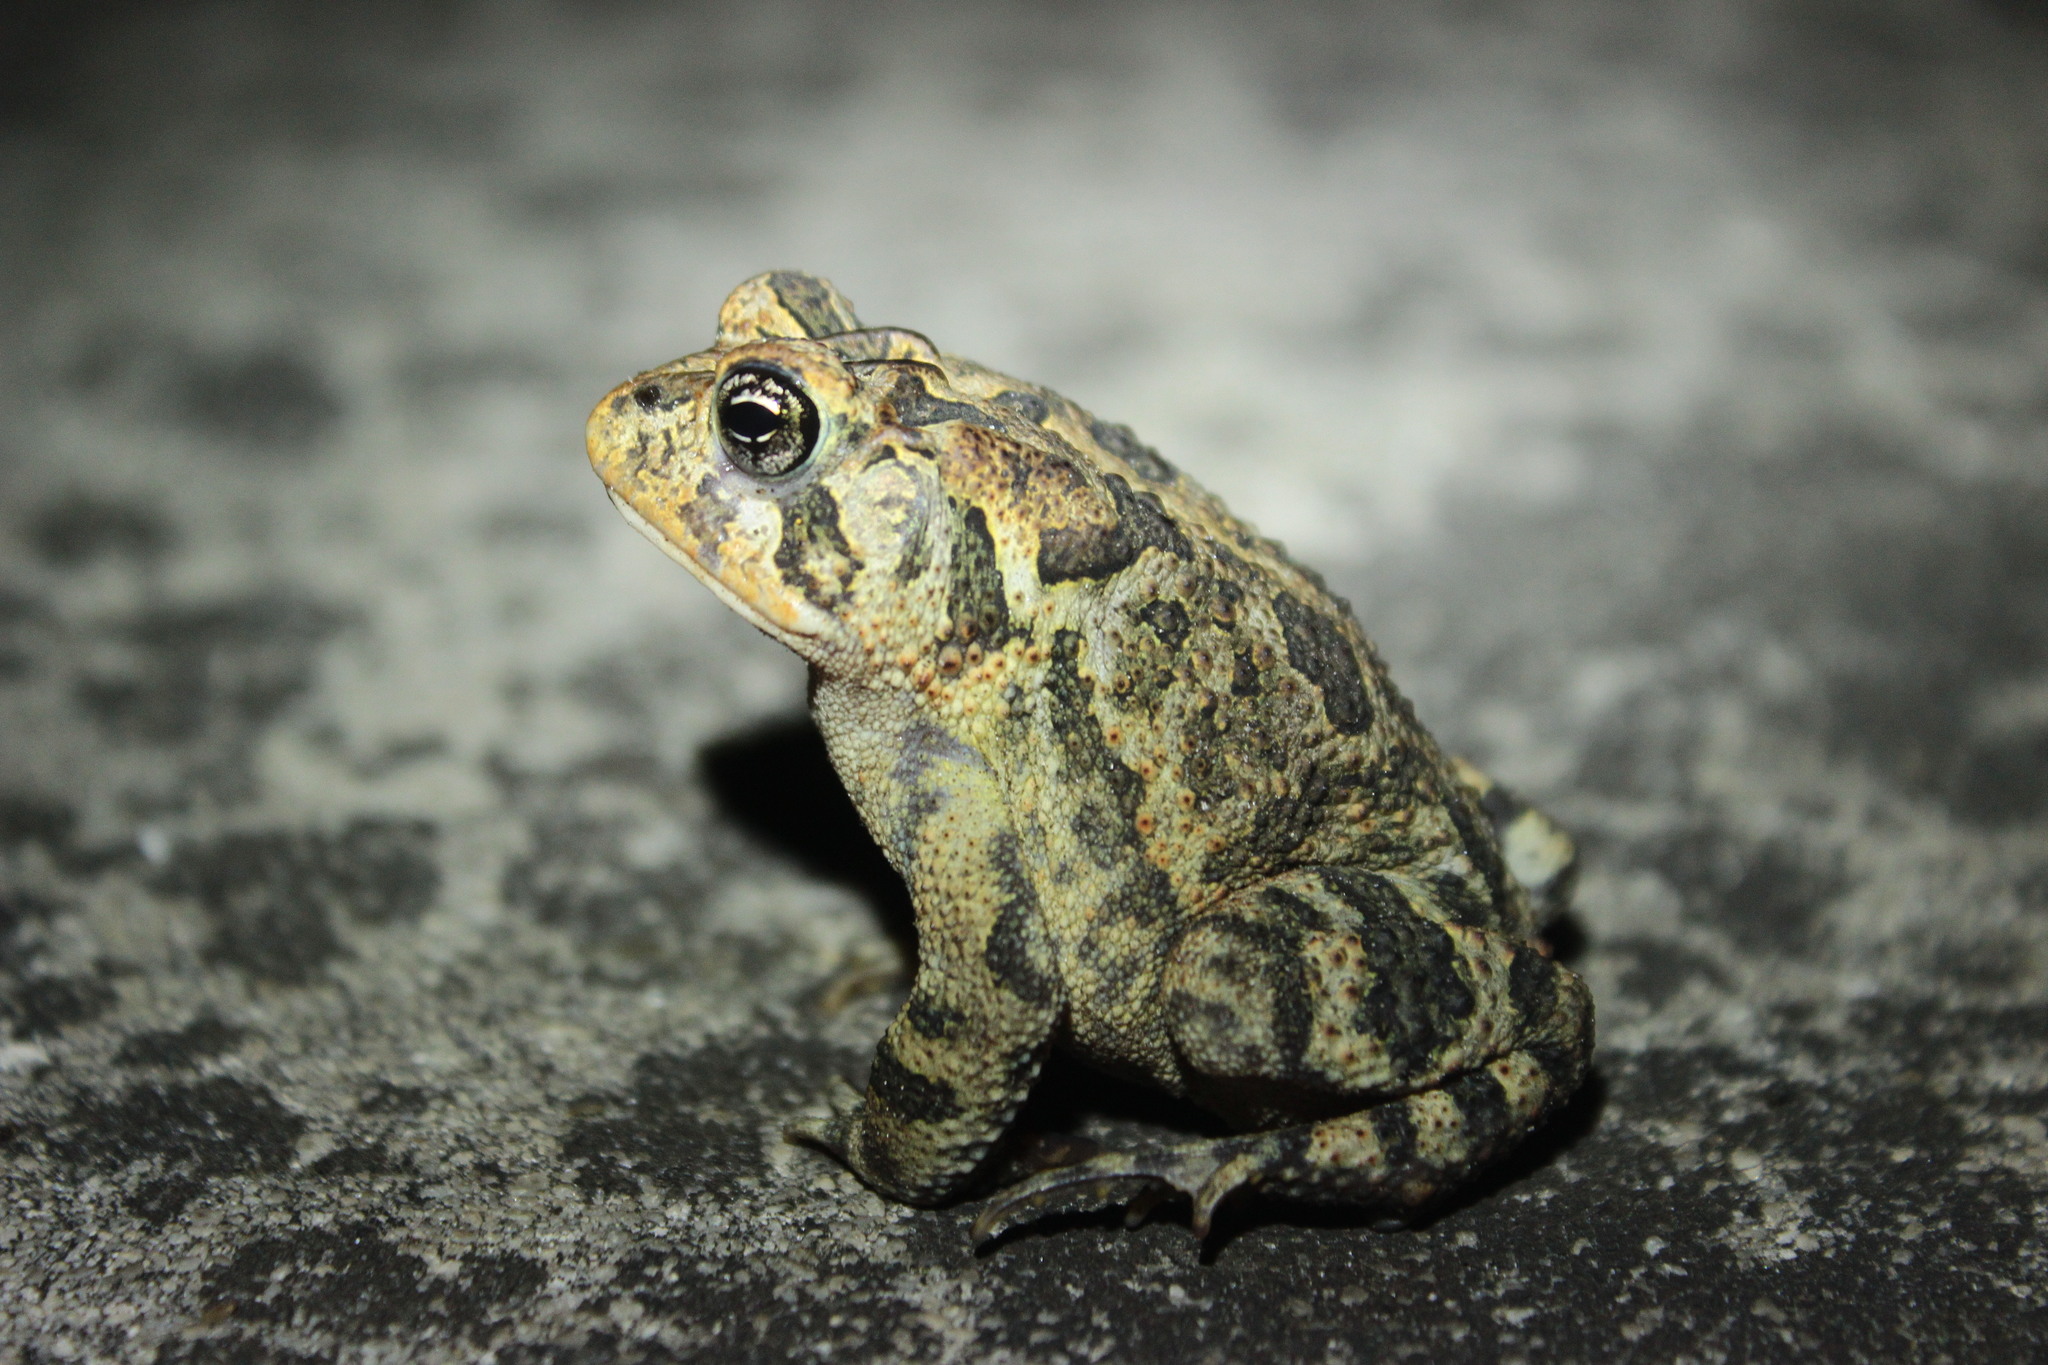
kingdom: Animalia
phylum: Chordata
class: Amphibia
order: Anura
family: Bufonidae
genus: Anaxyrus
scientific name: Anaxyrus terrestris
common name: Southern toad
